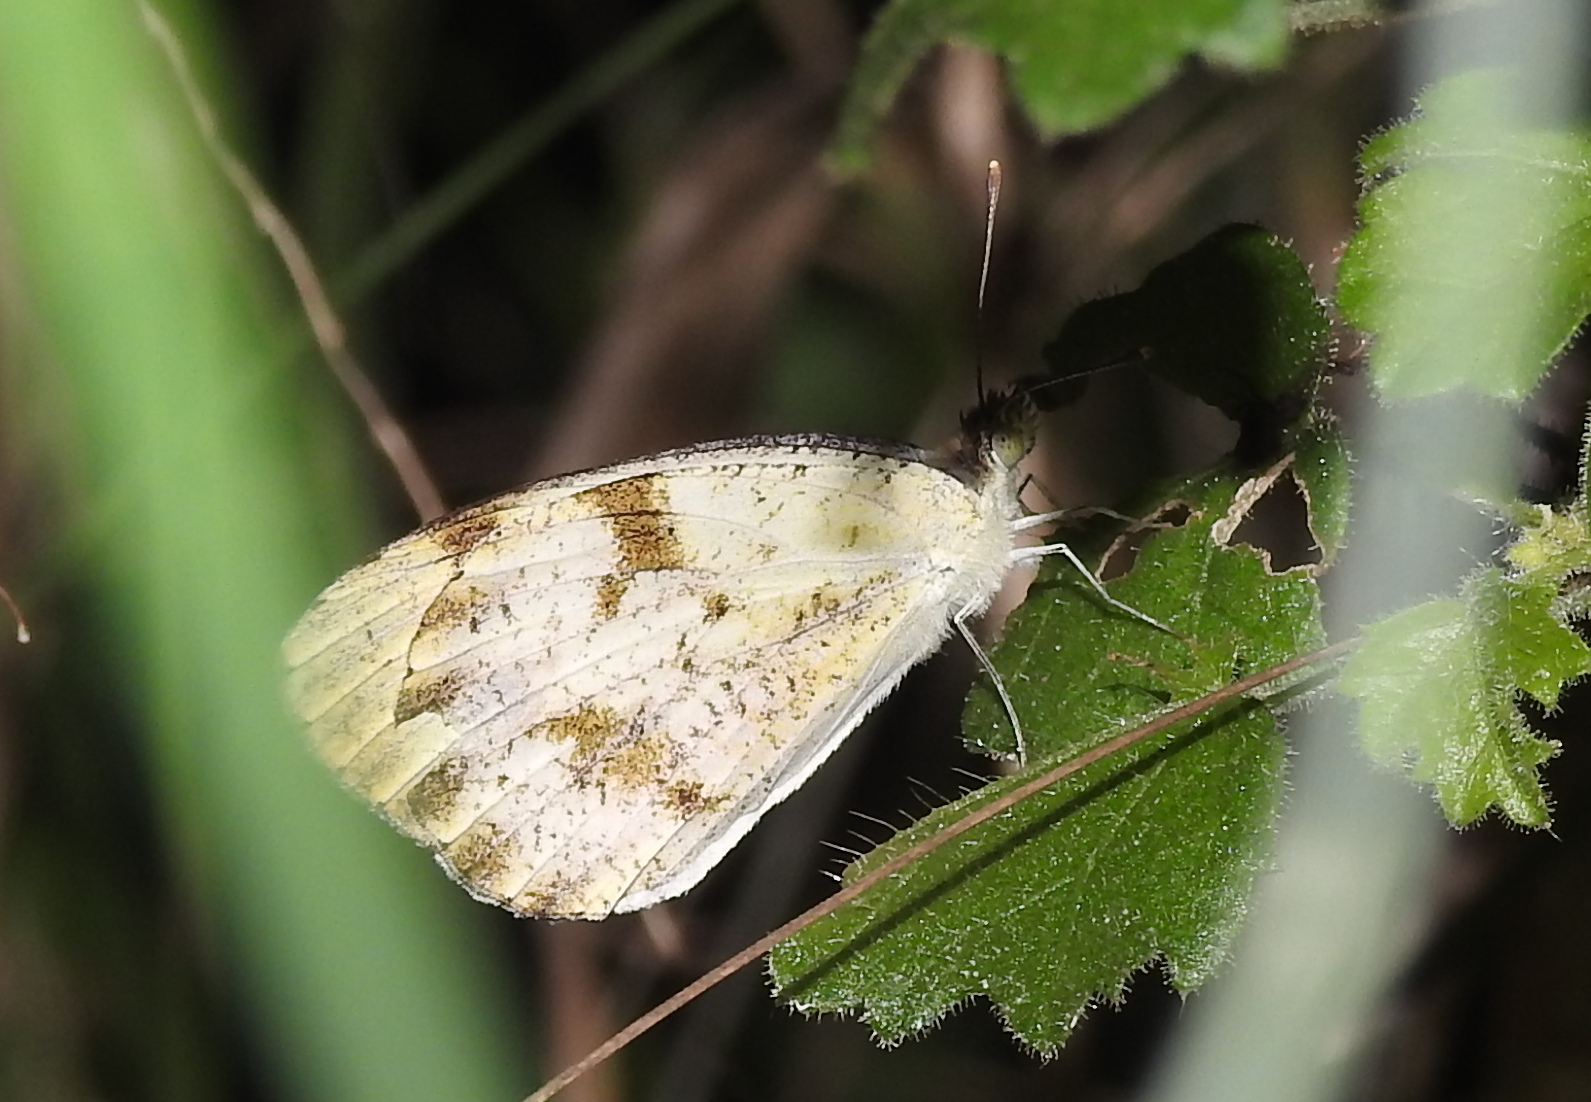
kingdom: Animalia
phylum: Arthropoda
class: Insecta
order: Lepidoptera
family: Pieridae
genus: Colotis
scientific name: Colotis aurora
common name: Plain orange-tip
